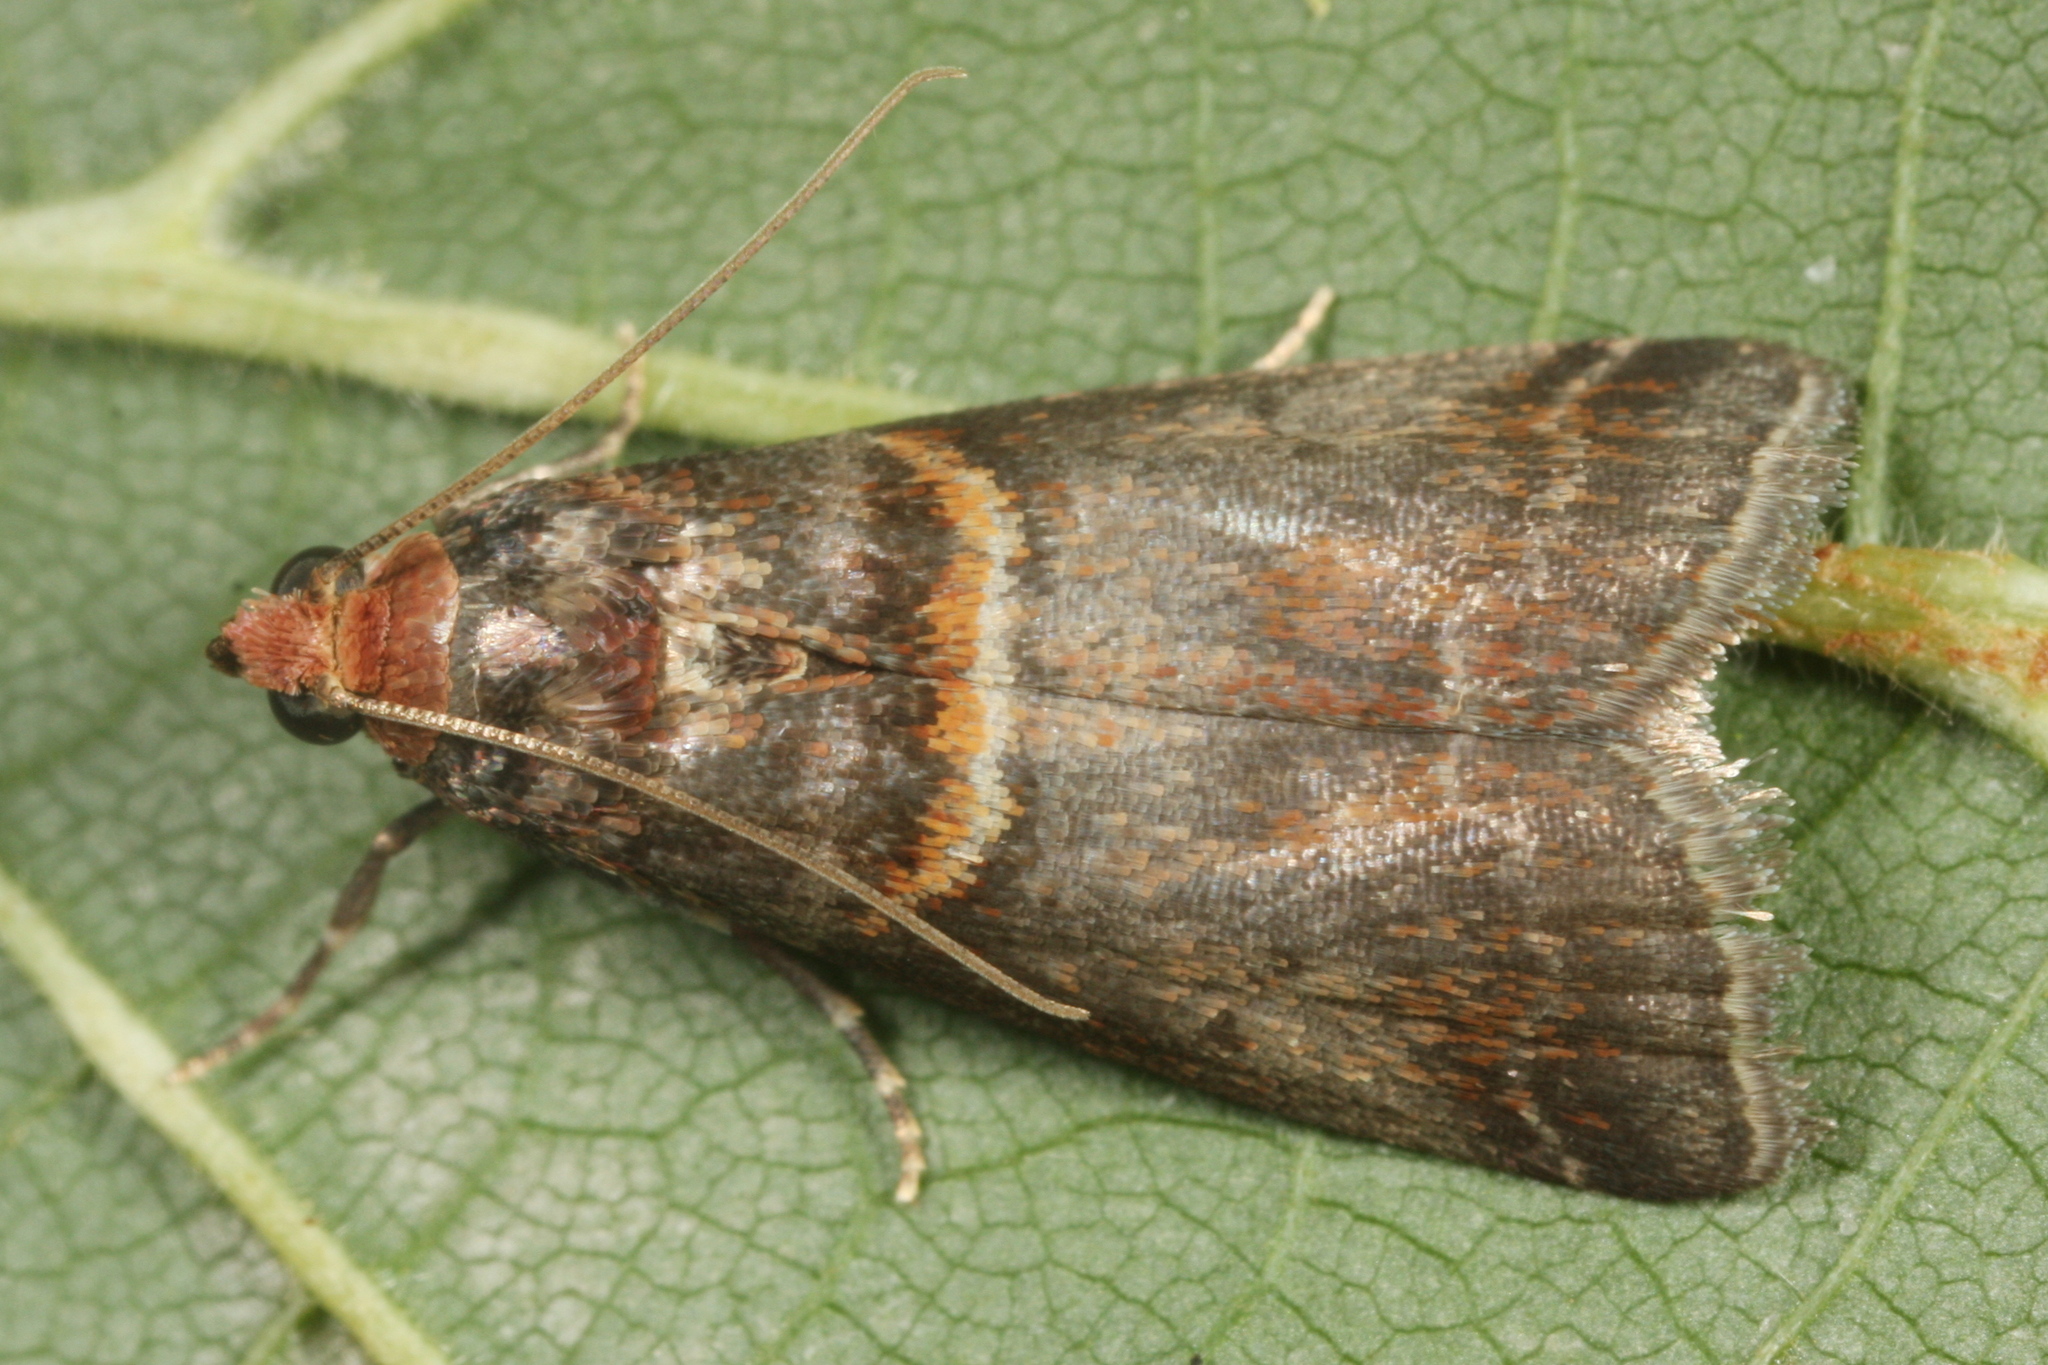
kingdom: Animalia
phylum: Arthropoda
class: Insecta
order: Lepidoptera
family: Pyralidae
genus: Acrobasis
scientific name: Acrobasis advenella
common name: Grey knot-horn
